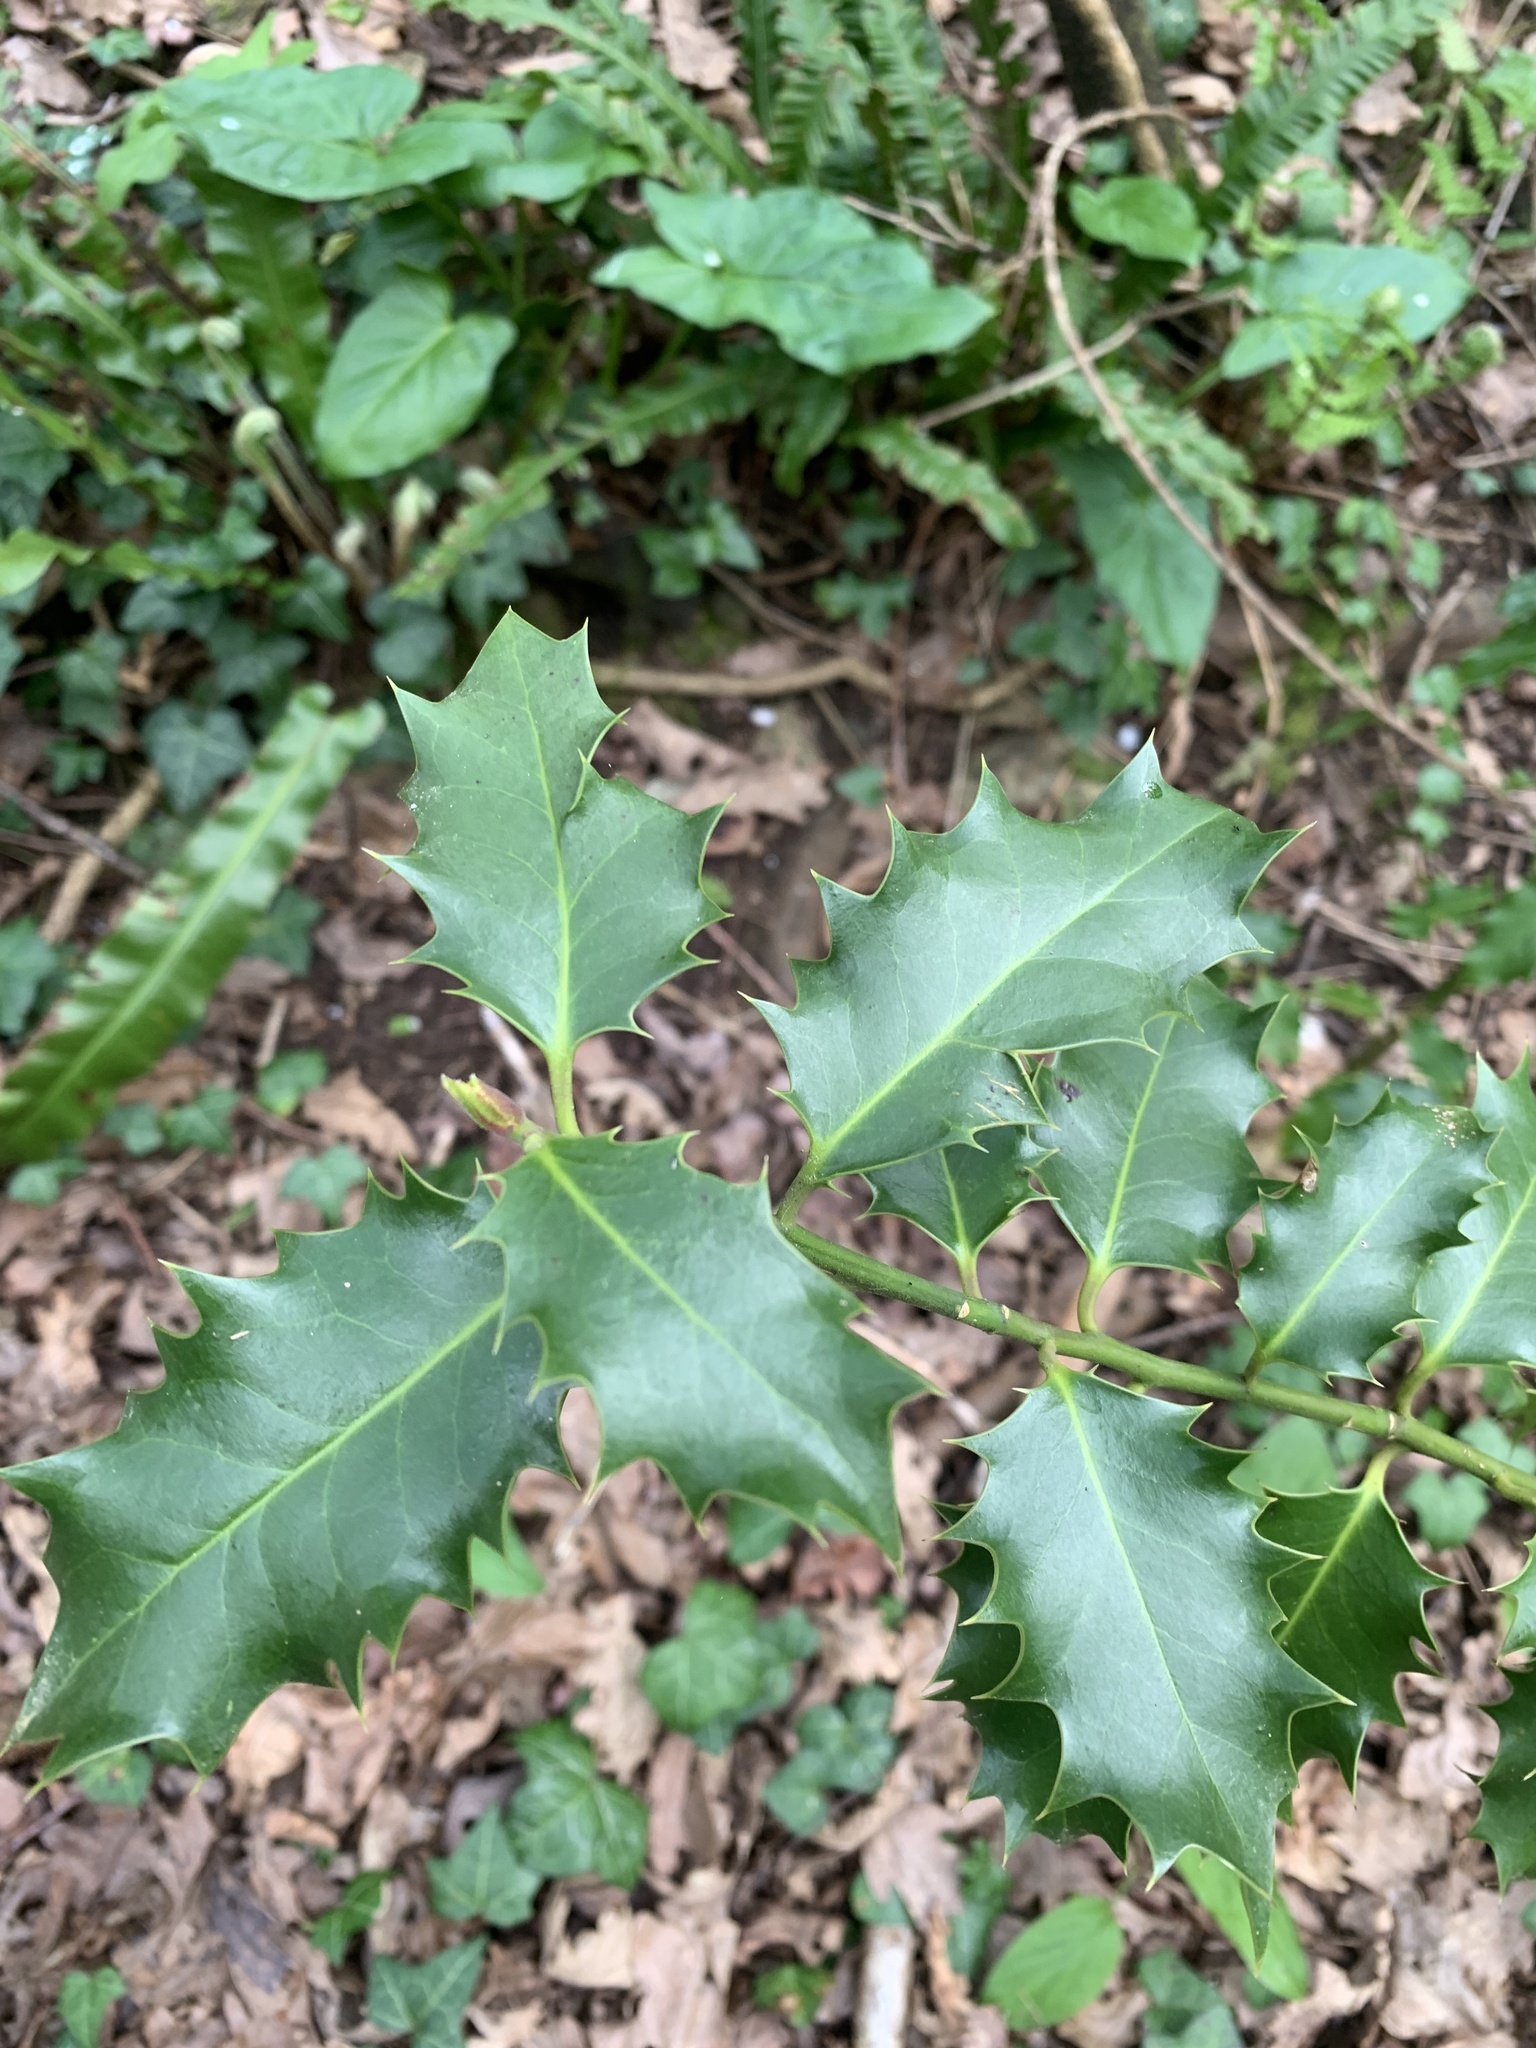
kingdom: Plantae
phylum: Tracheophyta
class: Magnoliopsida
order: Aquifoliales
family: Aquifoliaceae
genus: Ilex
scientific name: Ilex aquifolium
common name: English holly
